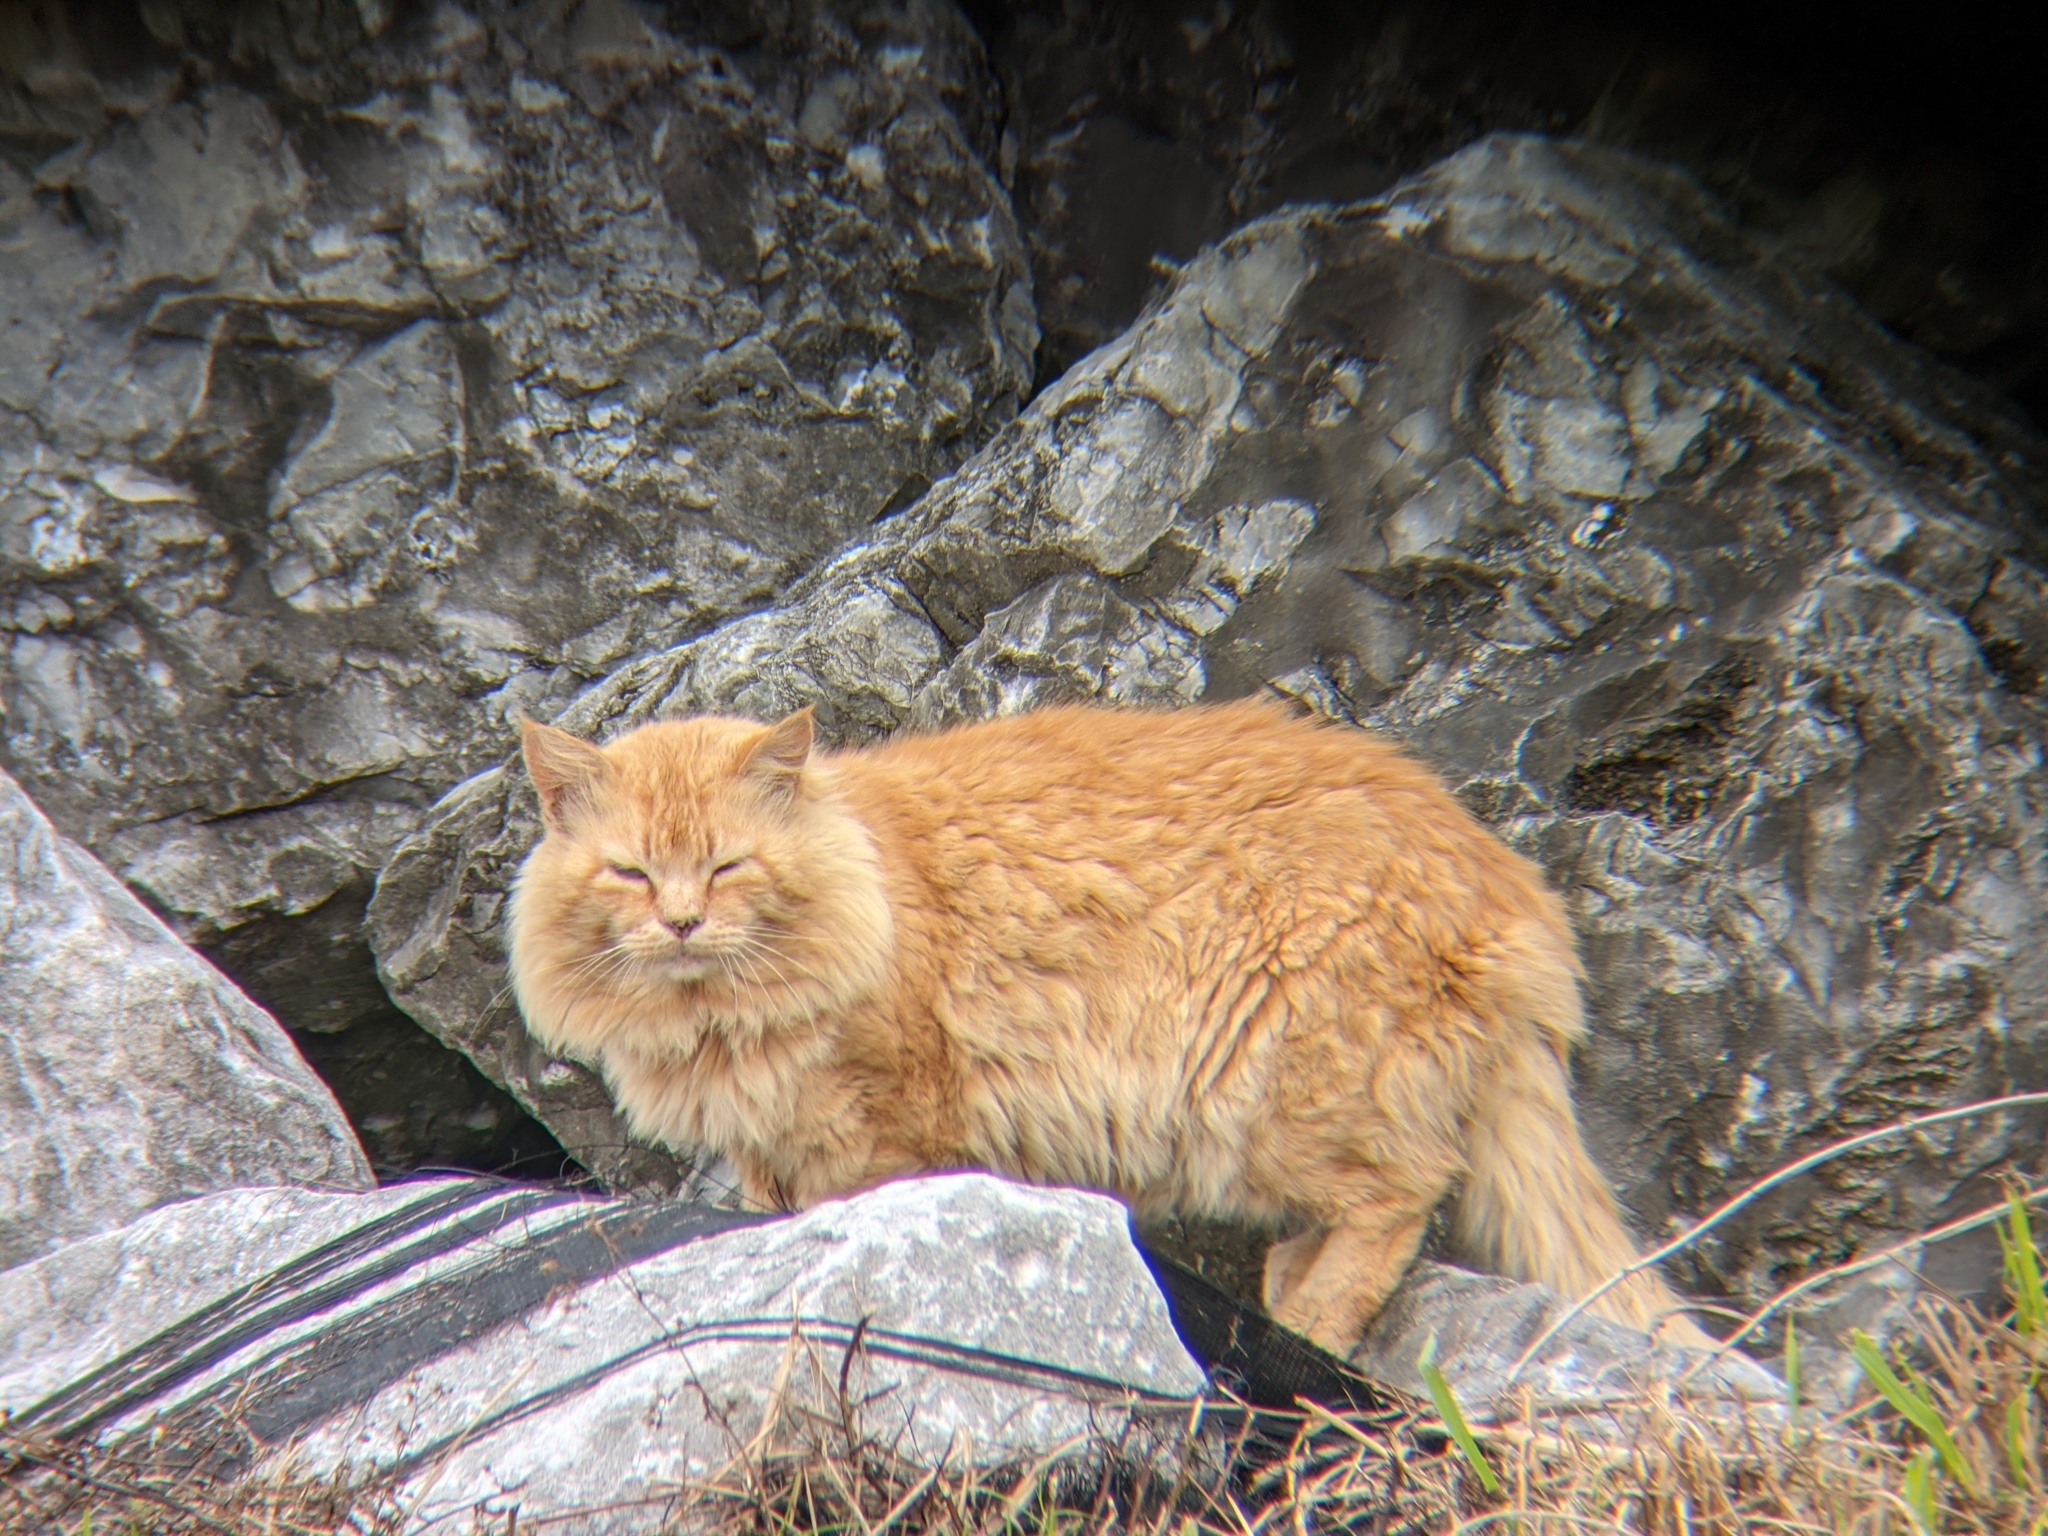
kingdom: Animalia
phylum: Chordata
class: Mammalia
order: Carnivora
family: Felidae
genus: Felis
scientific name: Felis catus
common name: Domestic cat
